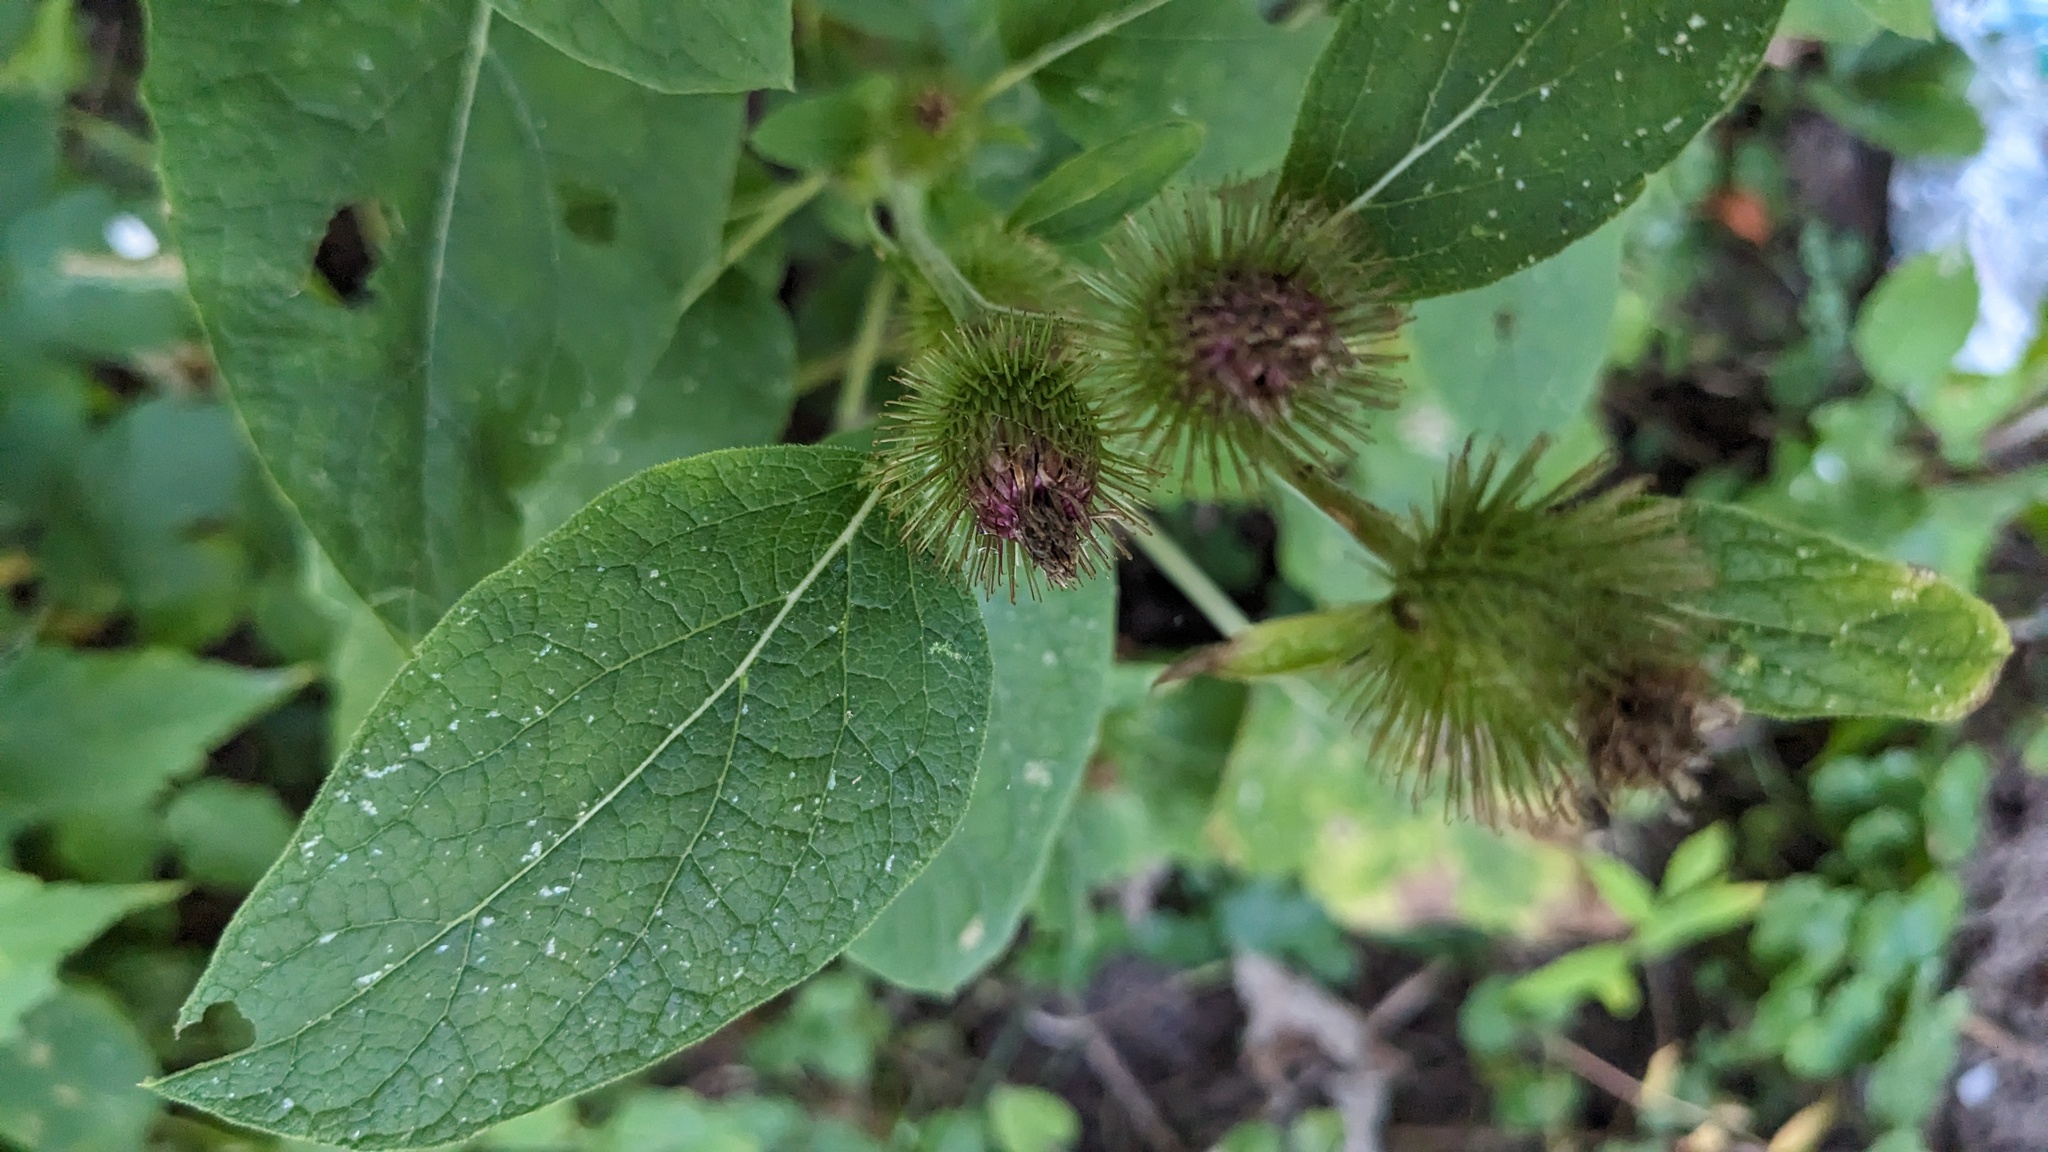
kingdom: Plantae
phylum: Tracheophyta
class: Magnoliopsida
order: Asterales
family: Asteraceae
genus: Arctium
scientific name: Arctium minus
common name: Lesser burdock
